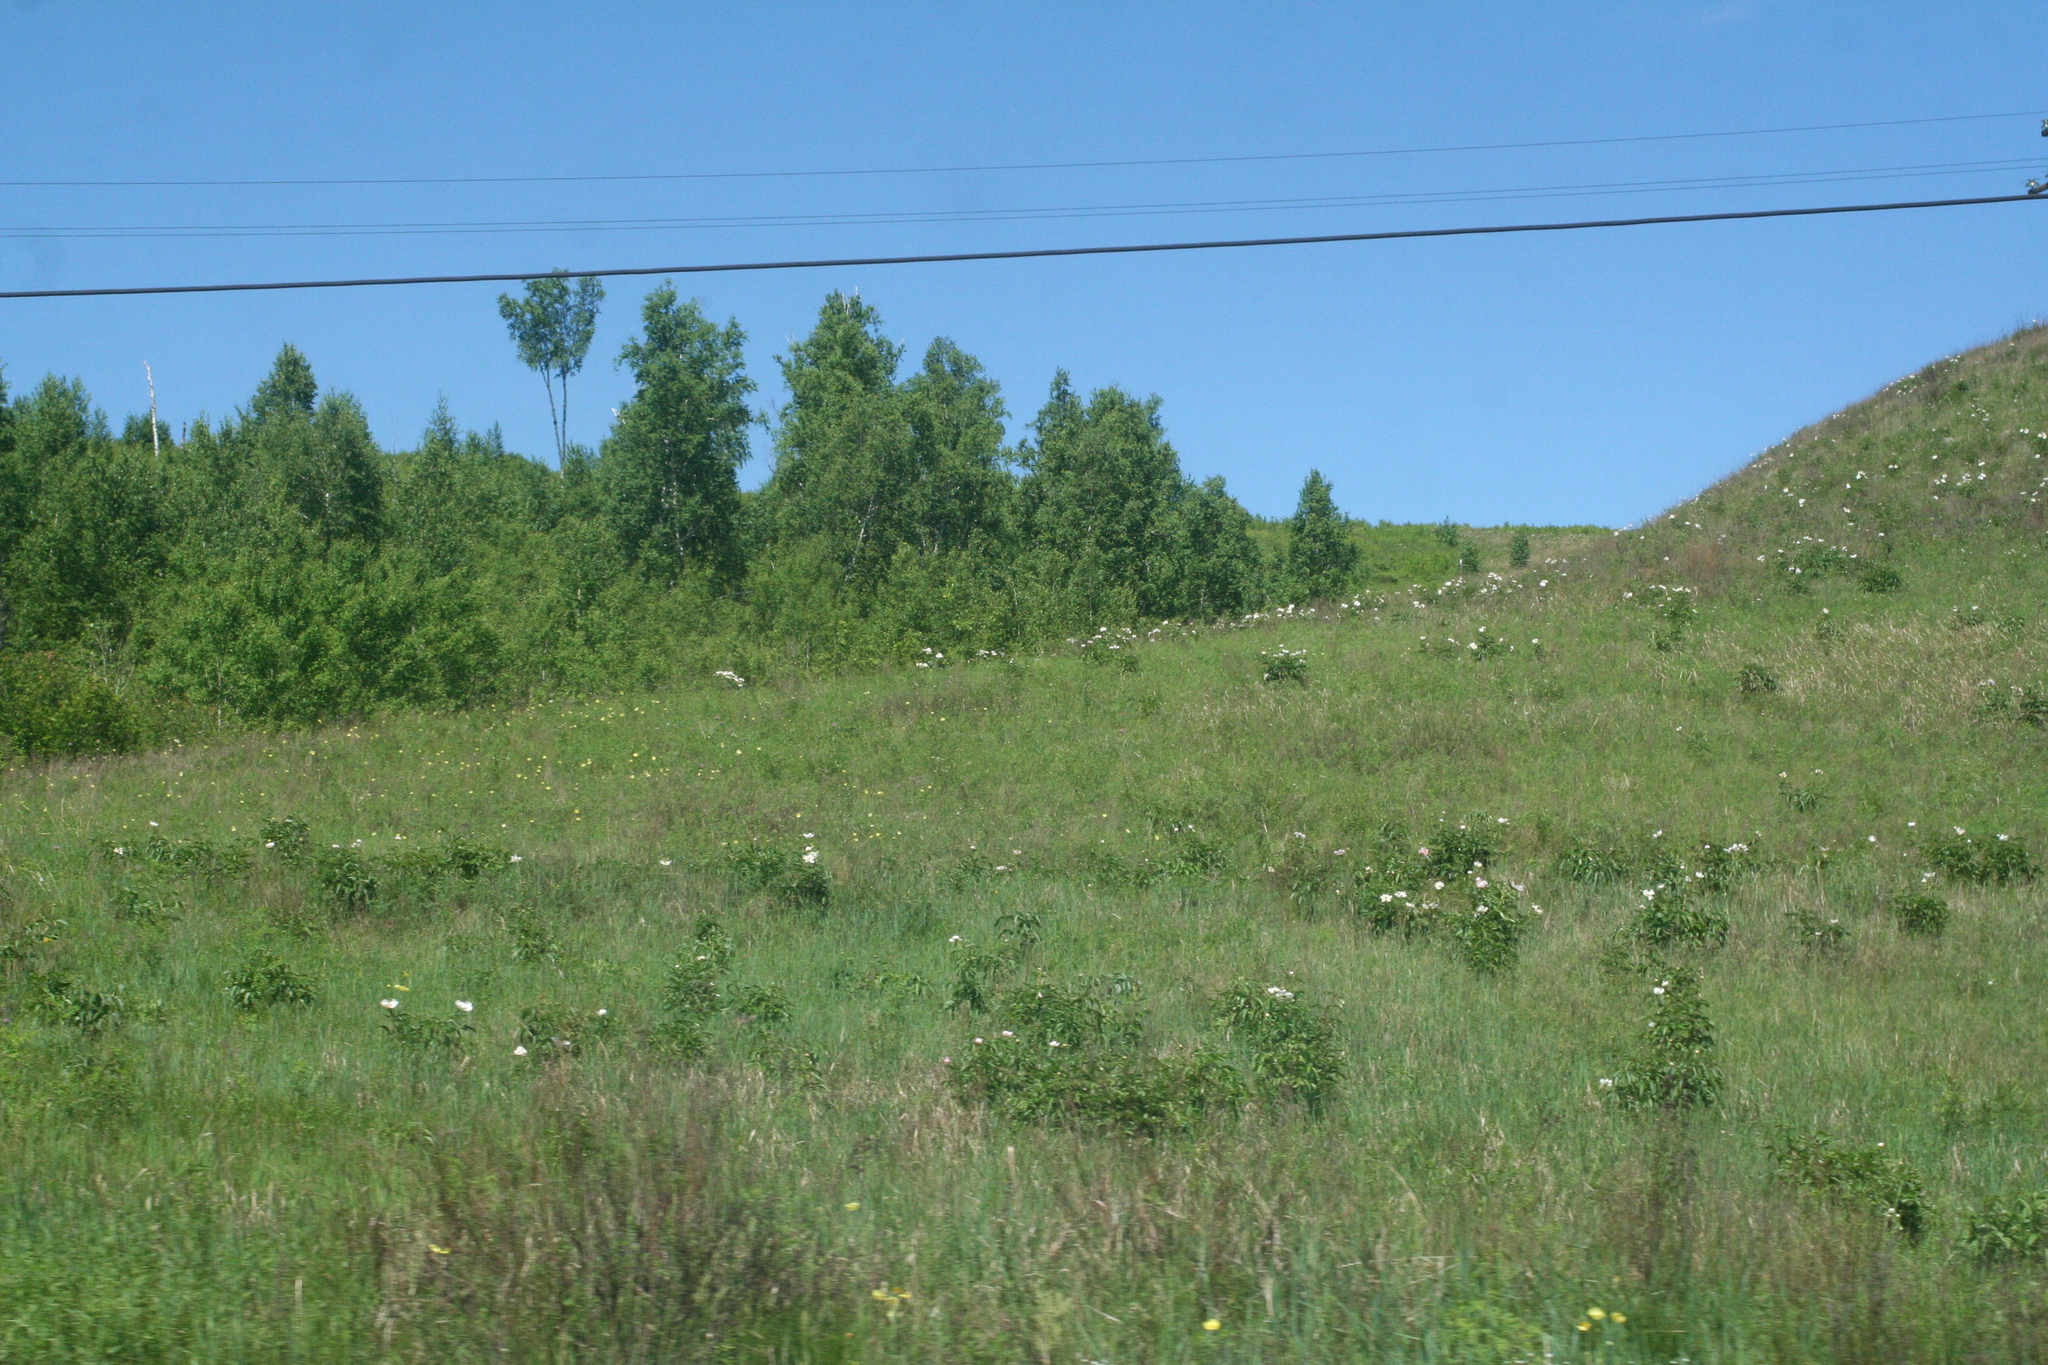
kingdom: Plantae
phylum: Tracheophyta
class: Magnoliopsida
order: Saxifragales
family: Paeoniaceae
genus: Paeonia
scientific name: Paeonia lactiflora
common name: Chinese peony
